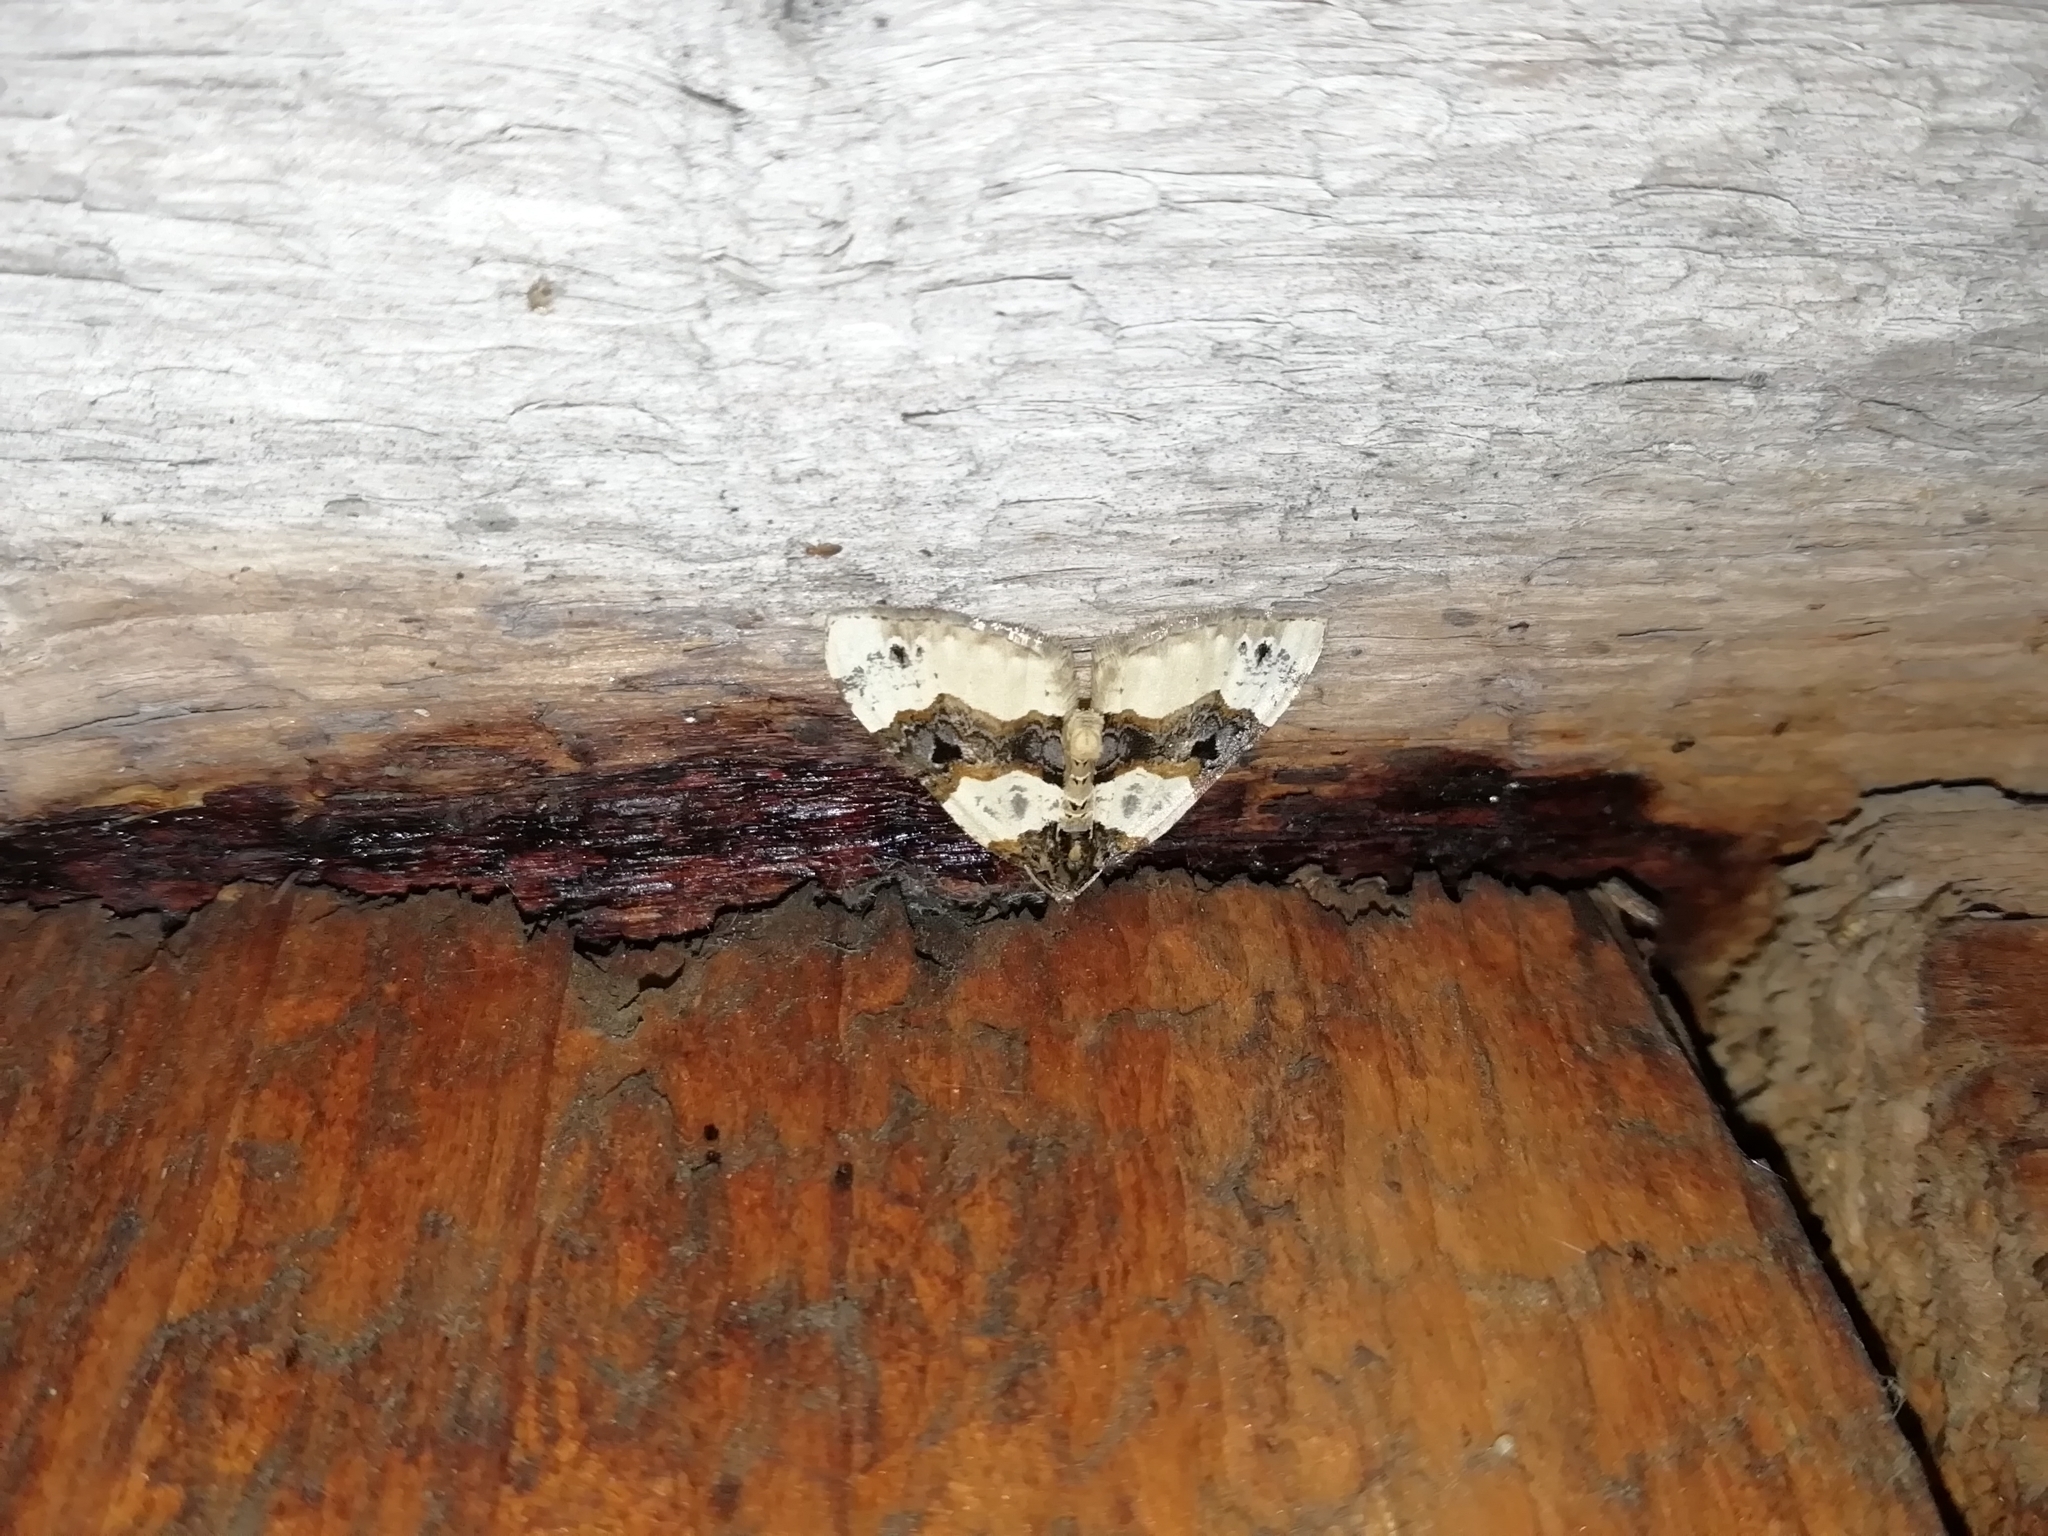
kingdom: Animalia
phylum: Arthropoda
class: Insecta
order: Lepidoptera
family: Geometridae
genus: Cosmorhoe
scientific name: Cosmorhoe ocellata
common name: Purple bar
